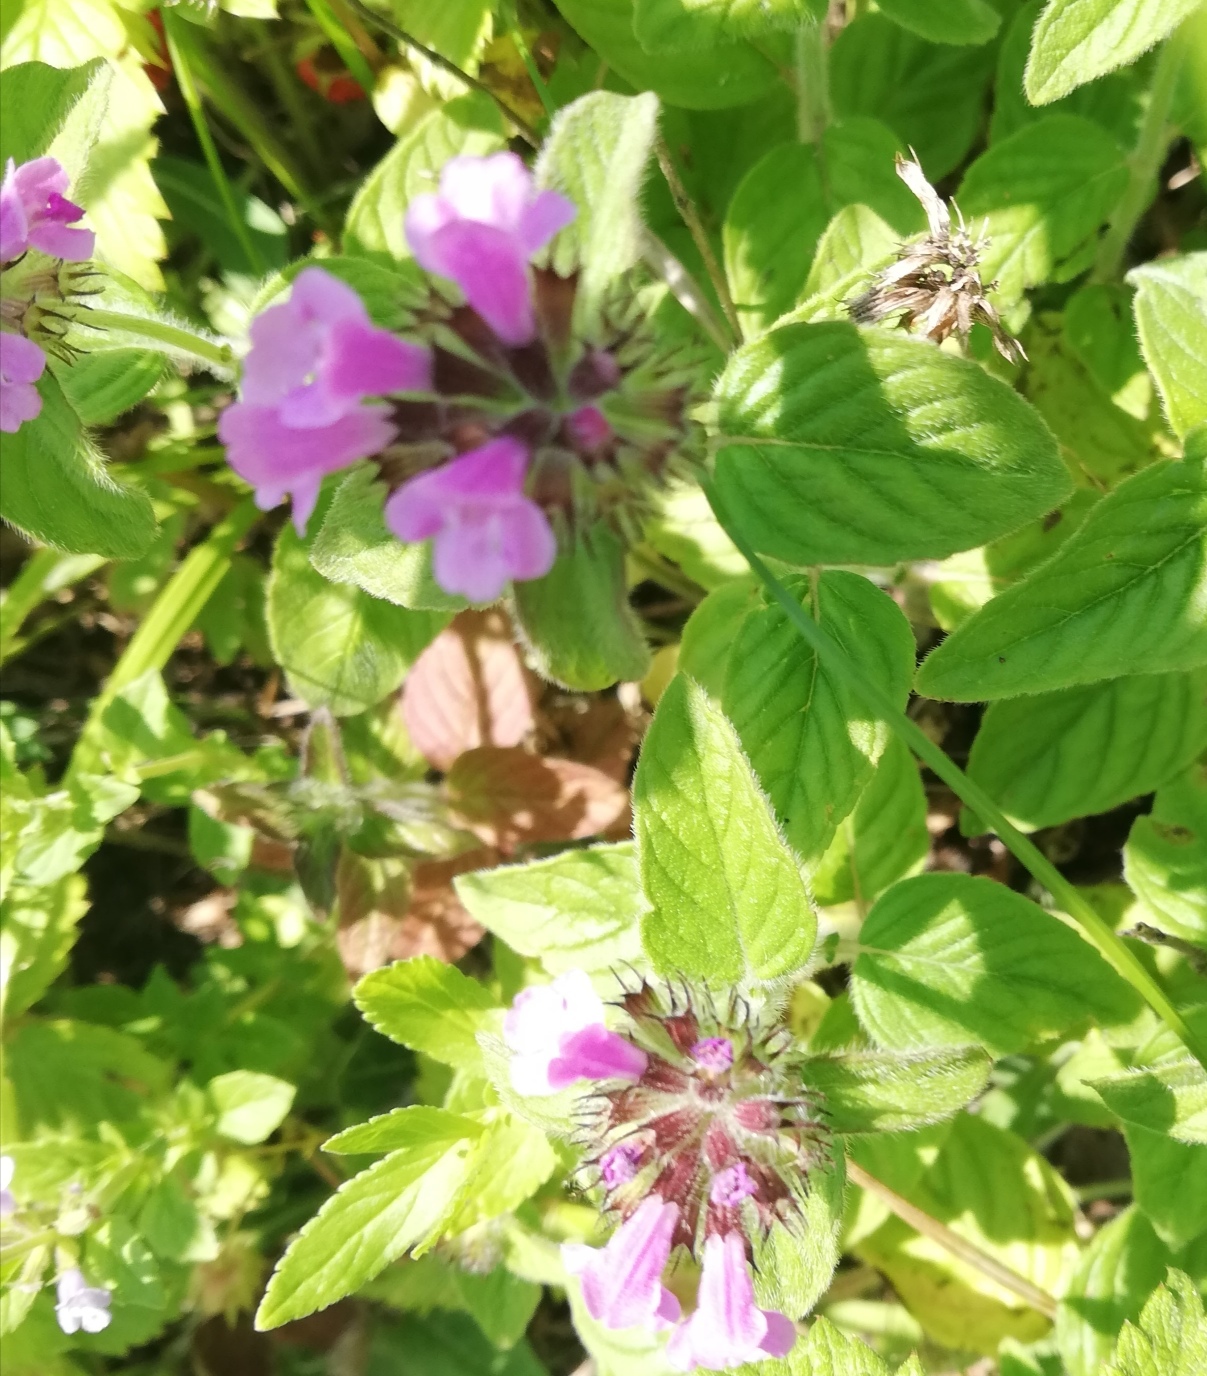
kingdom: Plantae
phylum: Tracheophyta
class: Magnoliopsida
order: Lamiales
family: Lamiaceae
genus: Clinopodium
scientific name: Clinopodium vulgare
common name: Wild basil
